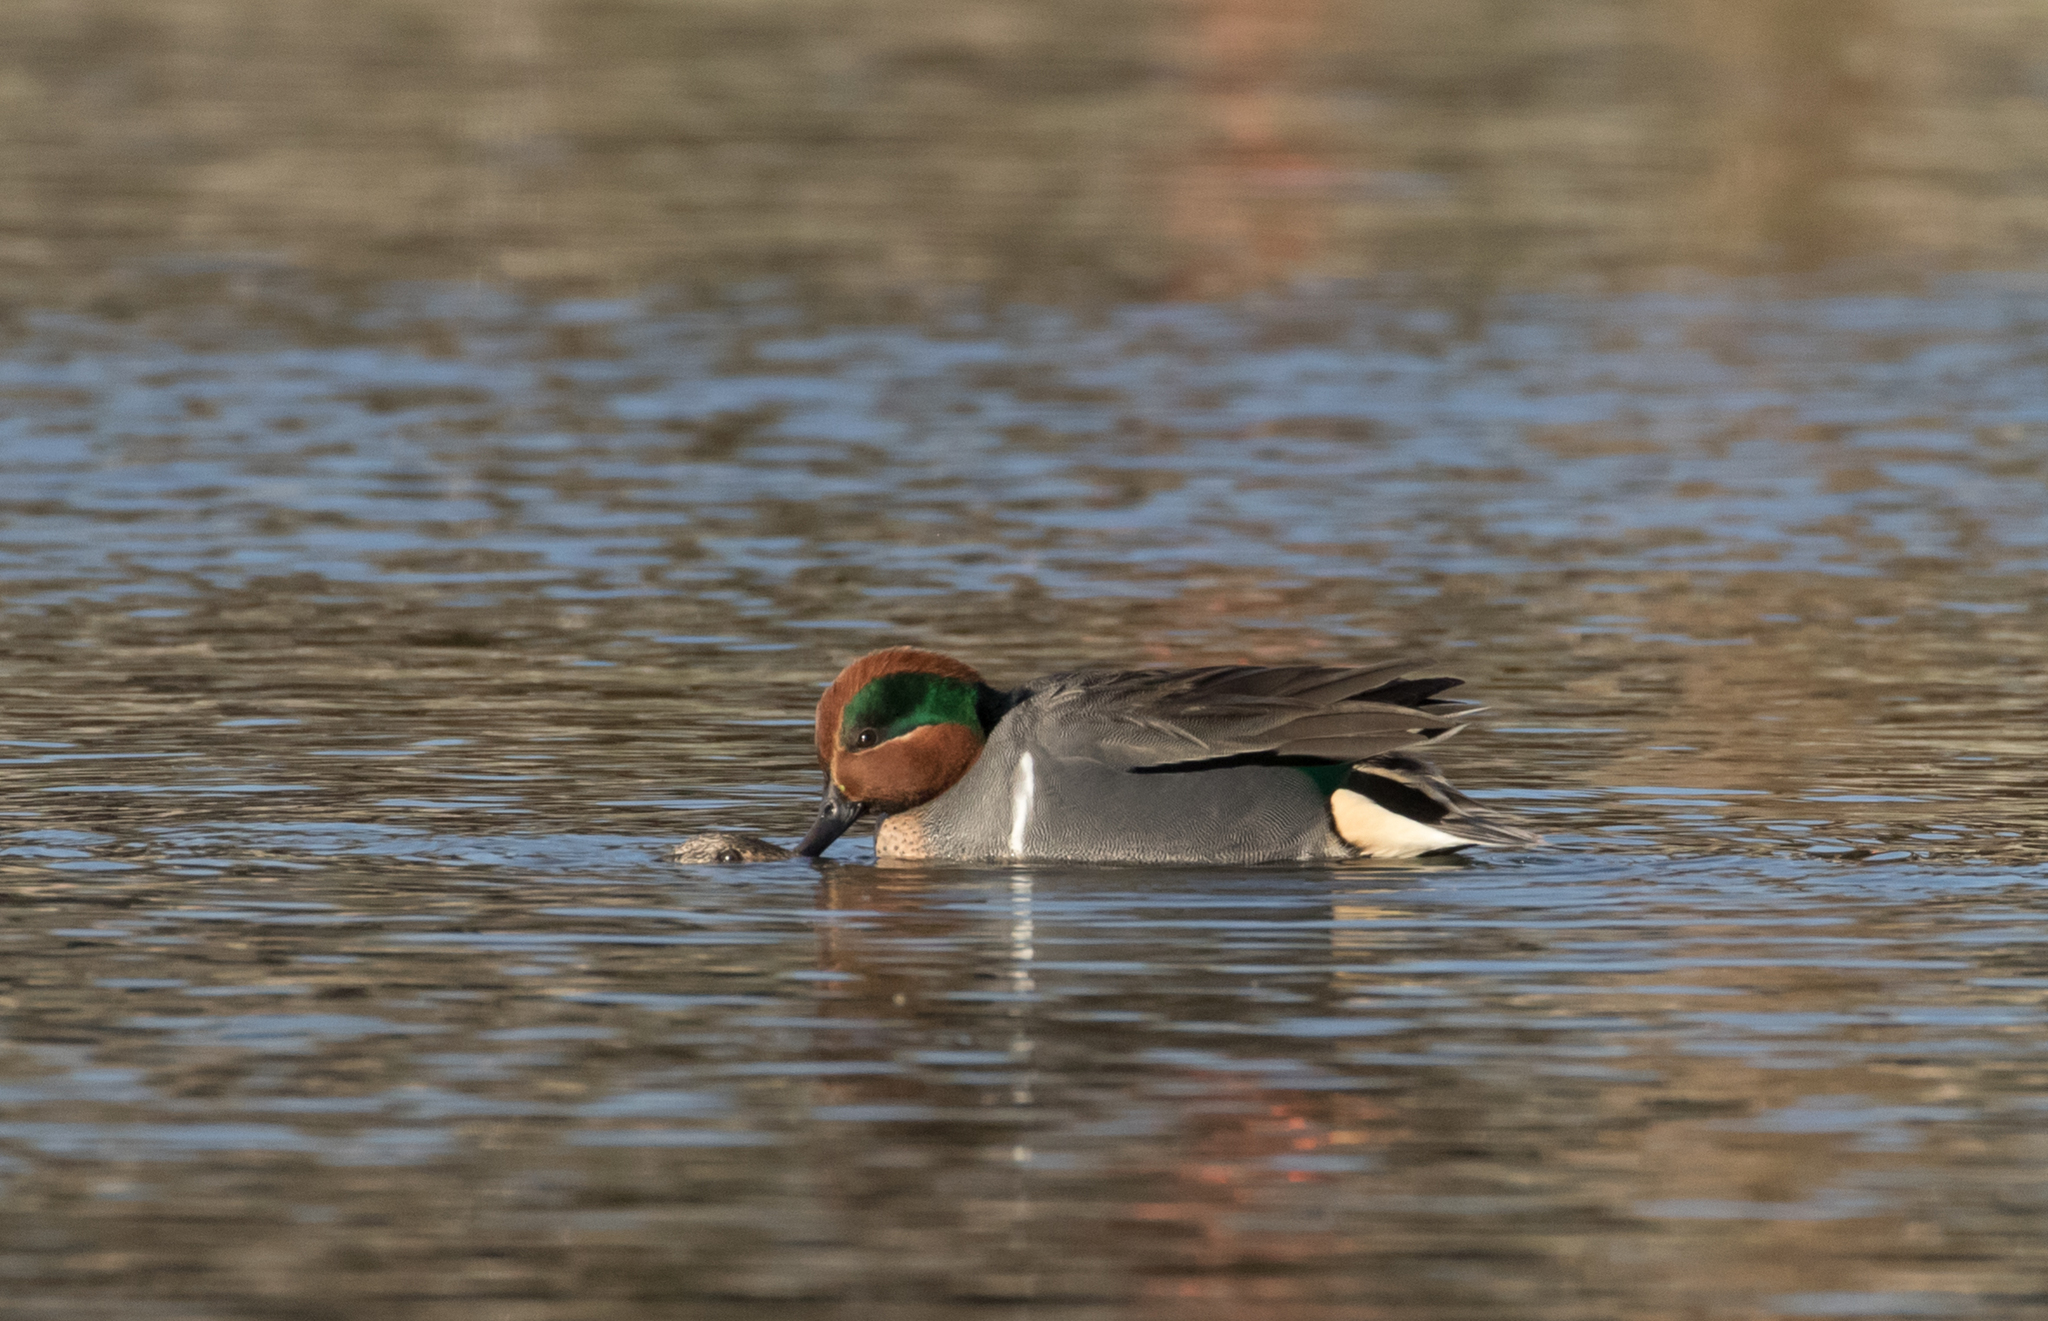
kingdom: Animalia
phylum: Chordata
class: Aves
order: Anseriformes
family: Anatidae
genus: Anas
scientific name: Anas crecca
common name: Eurasian teal
